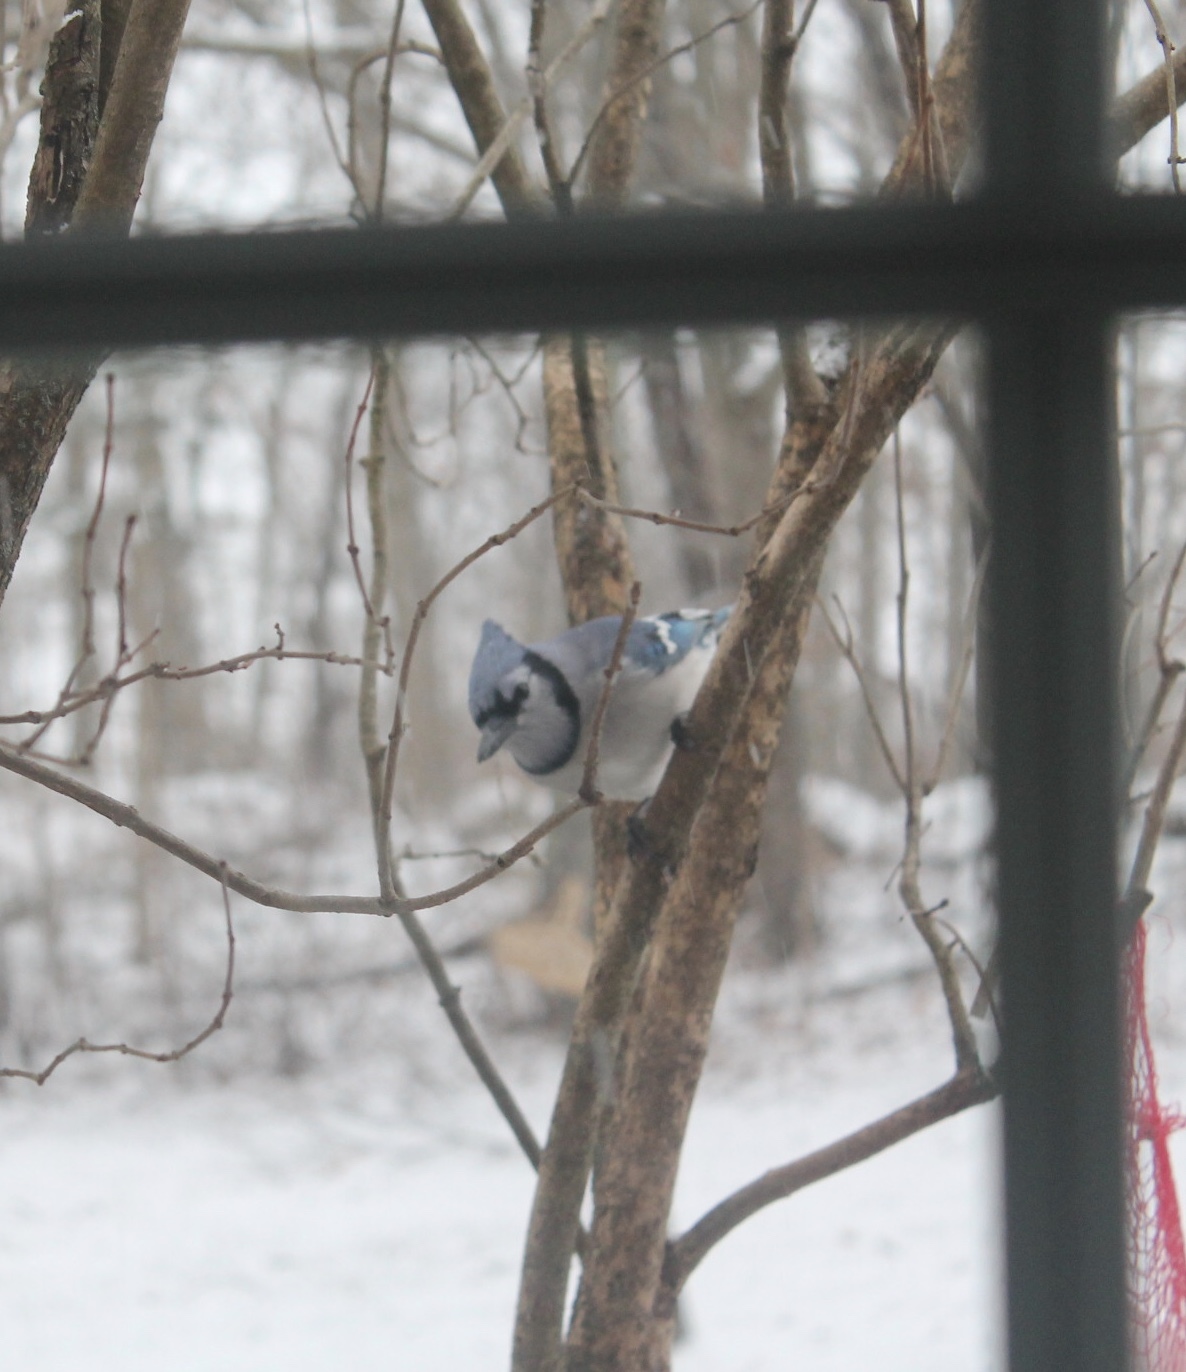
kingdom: Animalia
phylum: Chordata
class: Aves
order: Passeriformes
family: Corvidae
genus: Cyanocitta
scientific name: Cyanocitta cristata
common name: Blue jay
